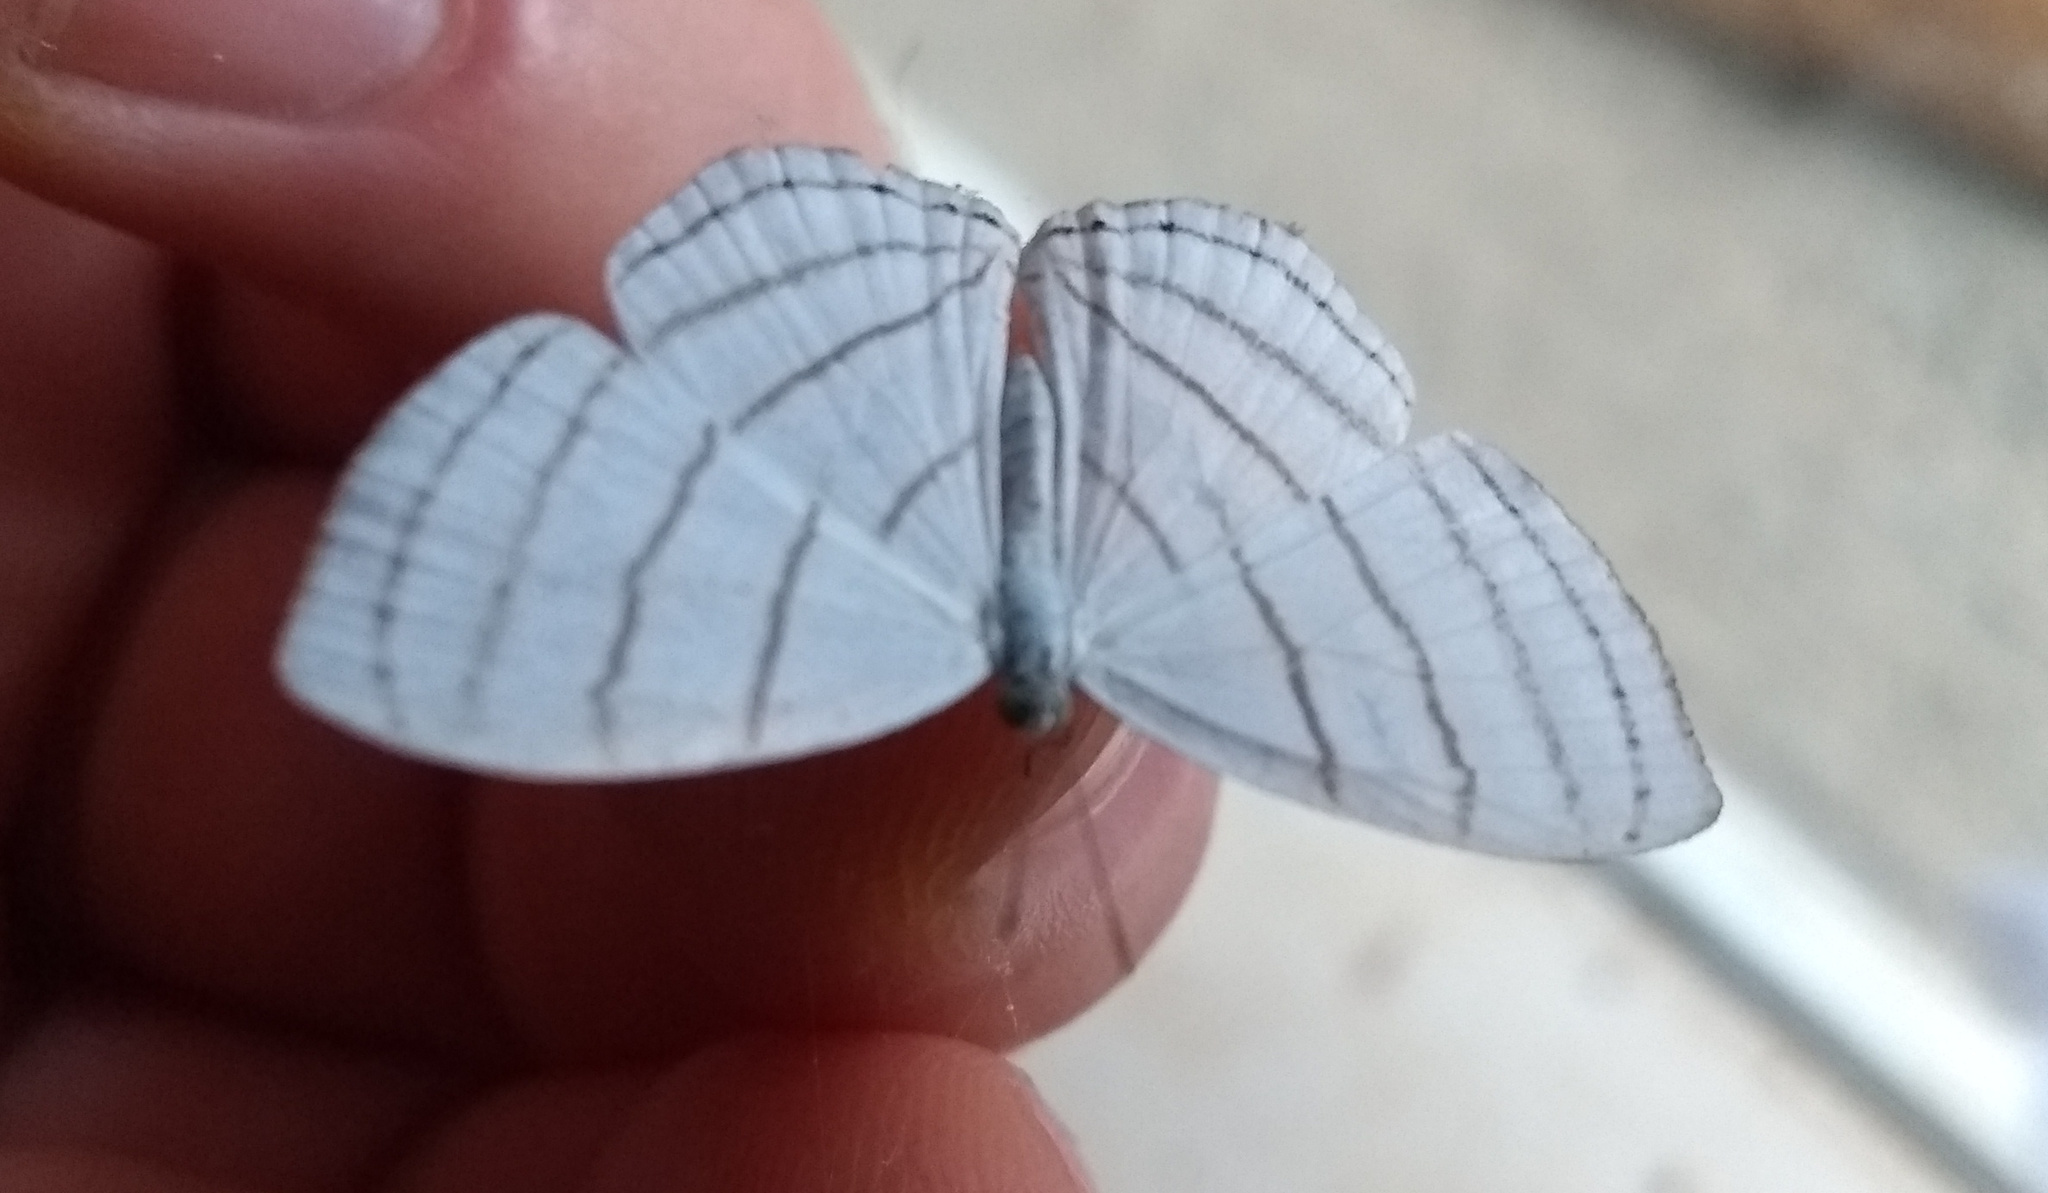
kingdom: Animalia
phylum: Arthropoda
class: Insecta
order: Lepidoptera
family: Riodinidae
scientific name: Riodinidae
